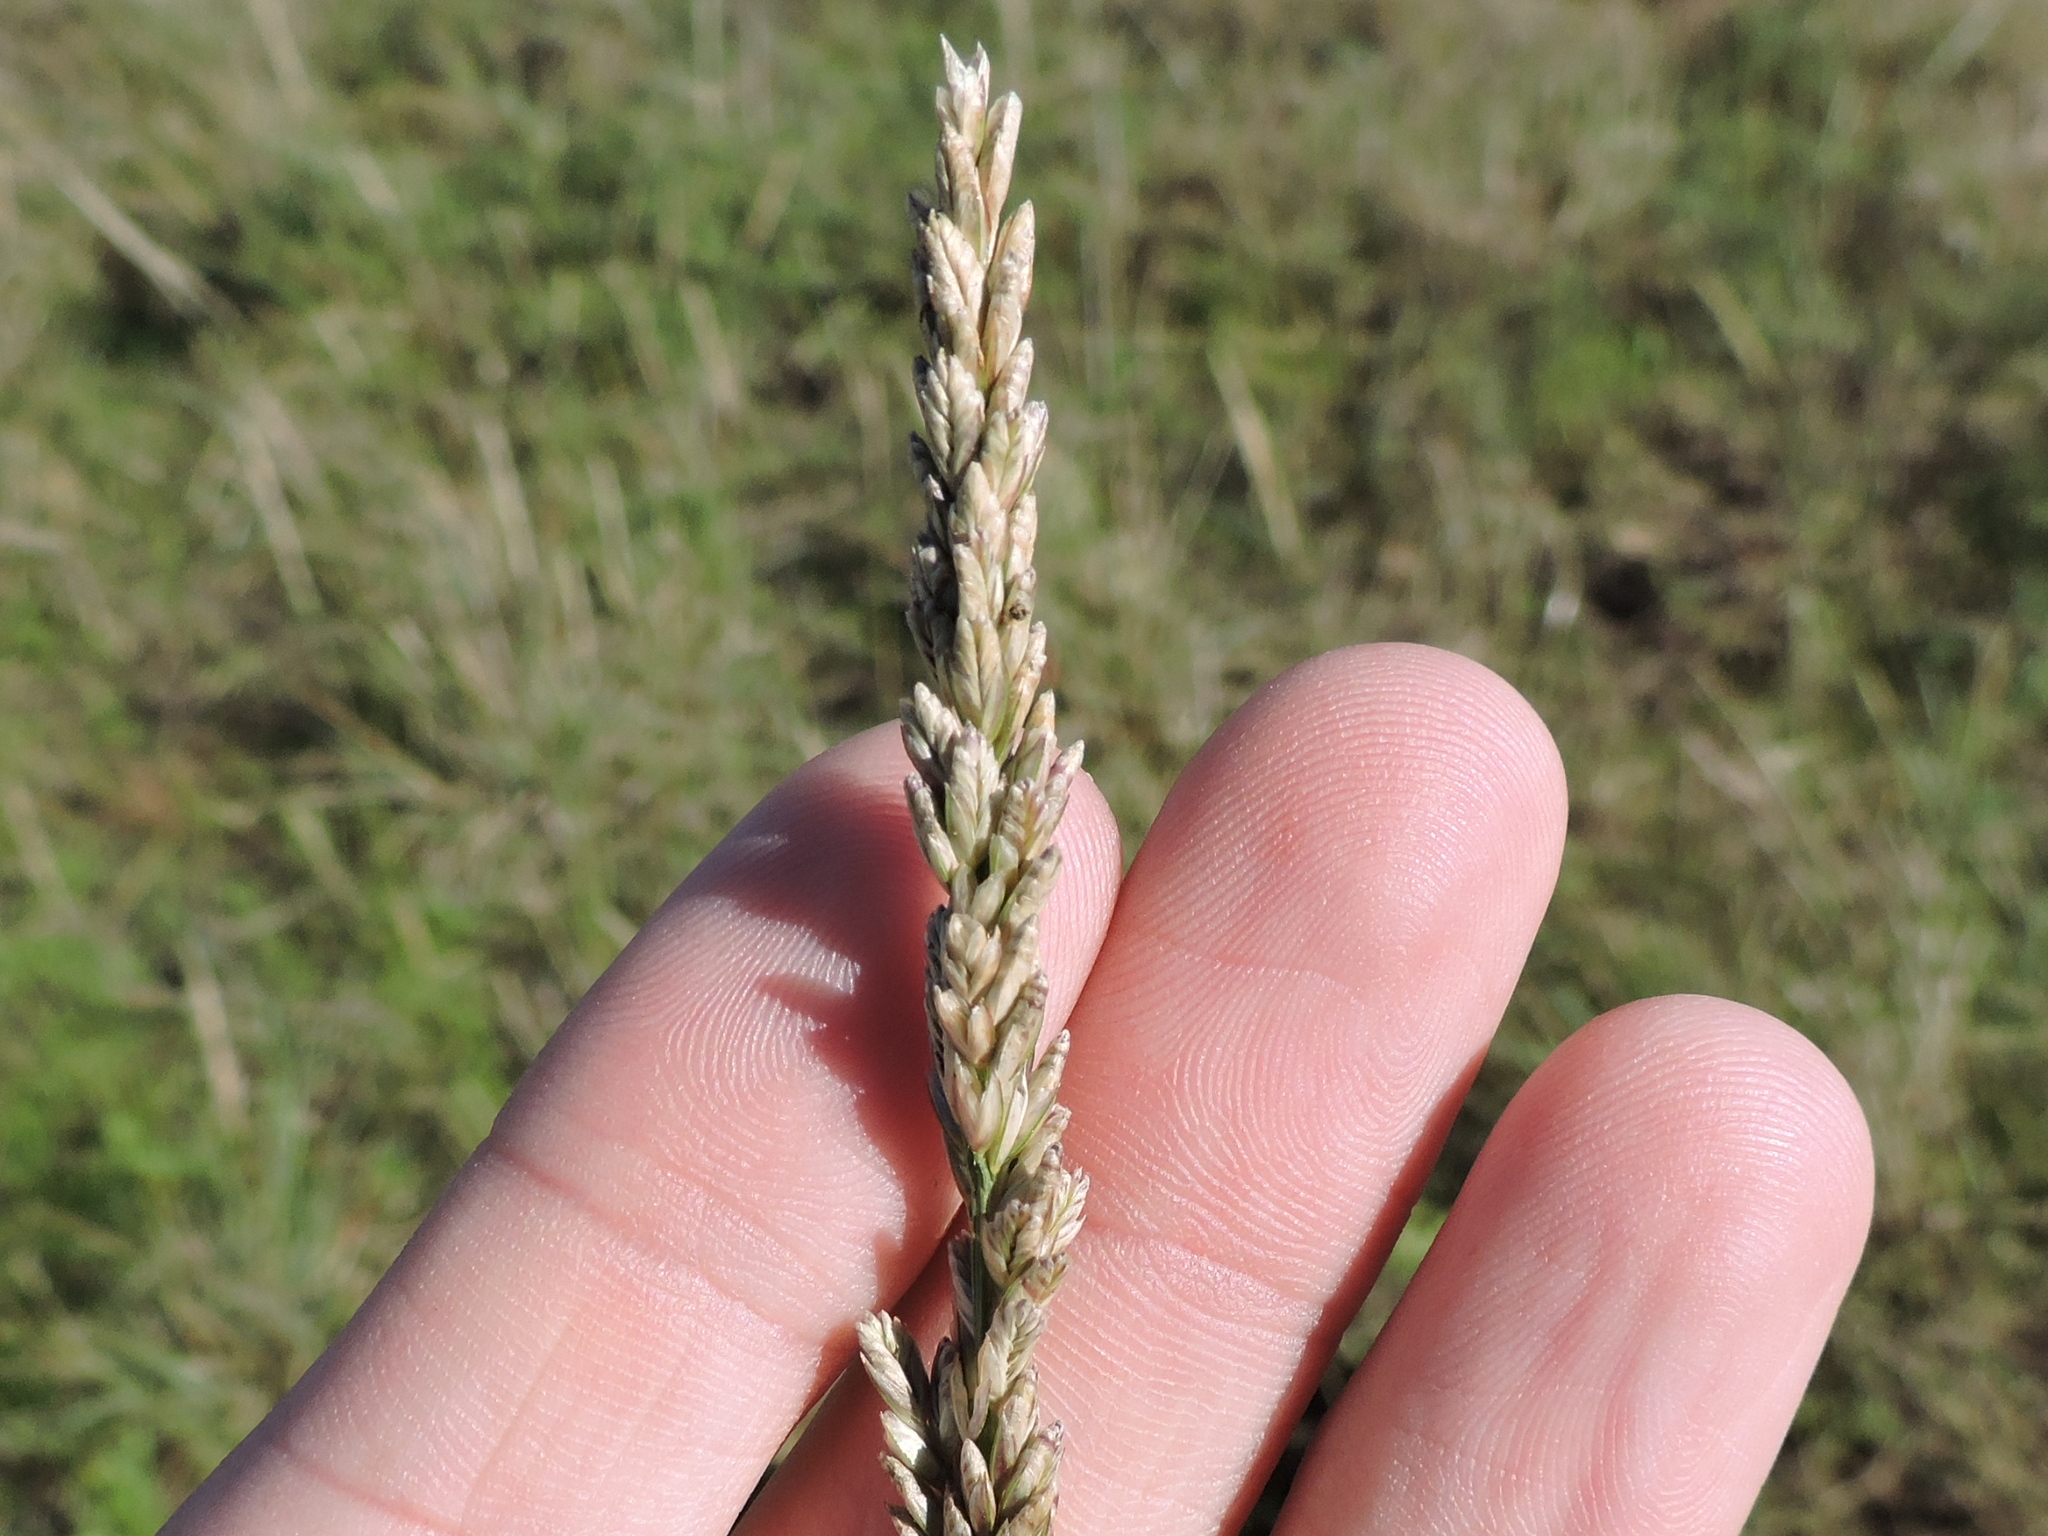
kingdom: Plantae
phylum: Tracheophyta
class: Liliopsida
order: Poales
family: Poaceae
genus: Tridens
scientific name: Tridens albescens
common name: White tridens
